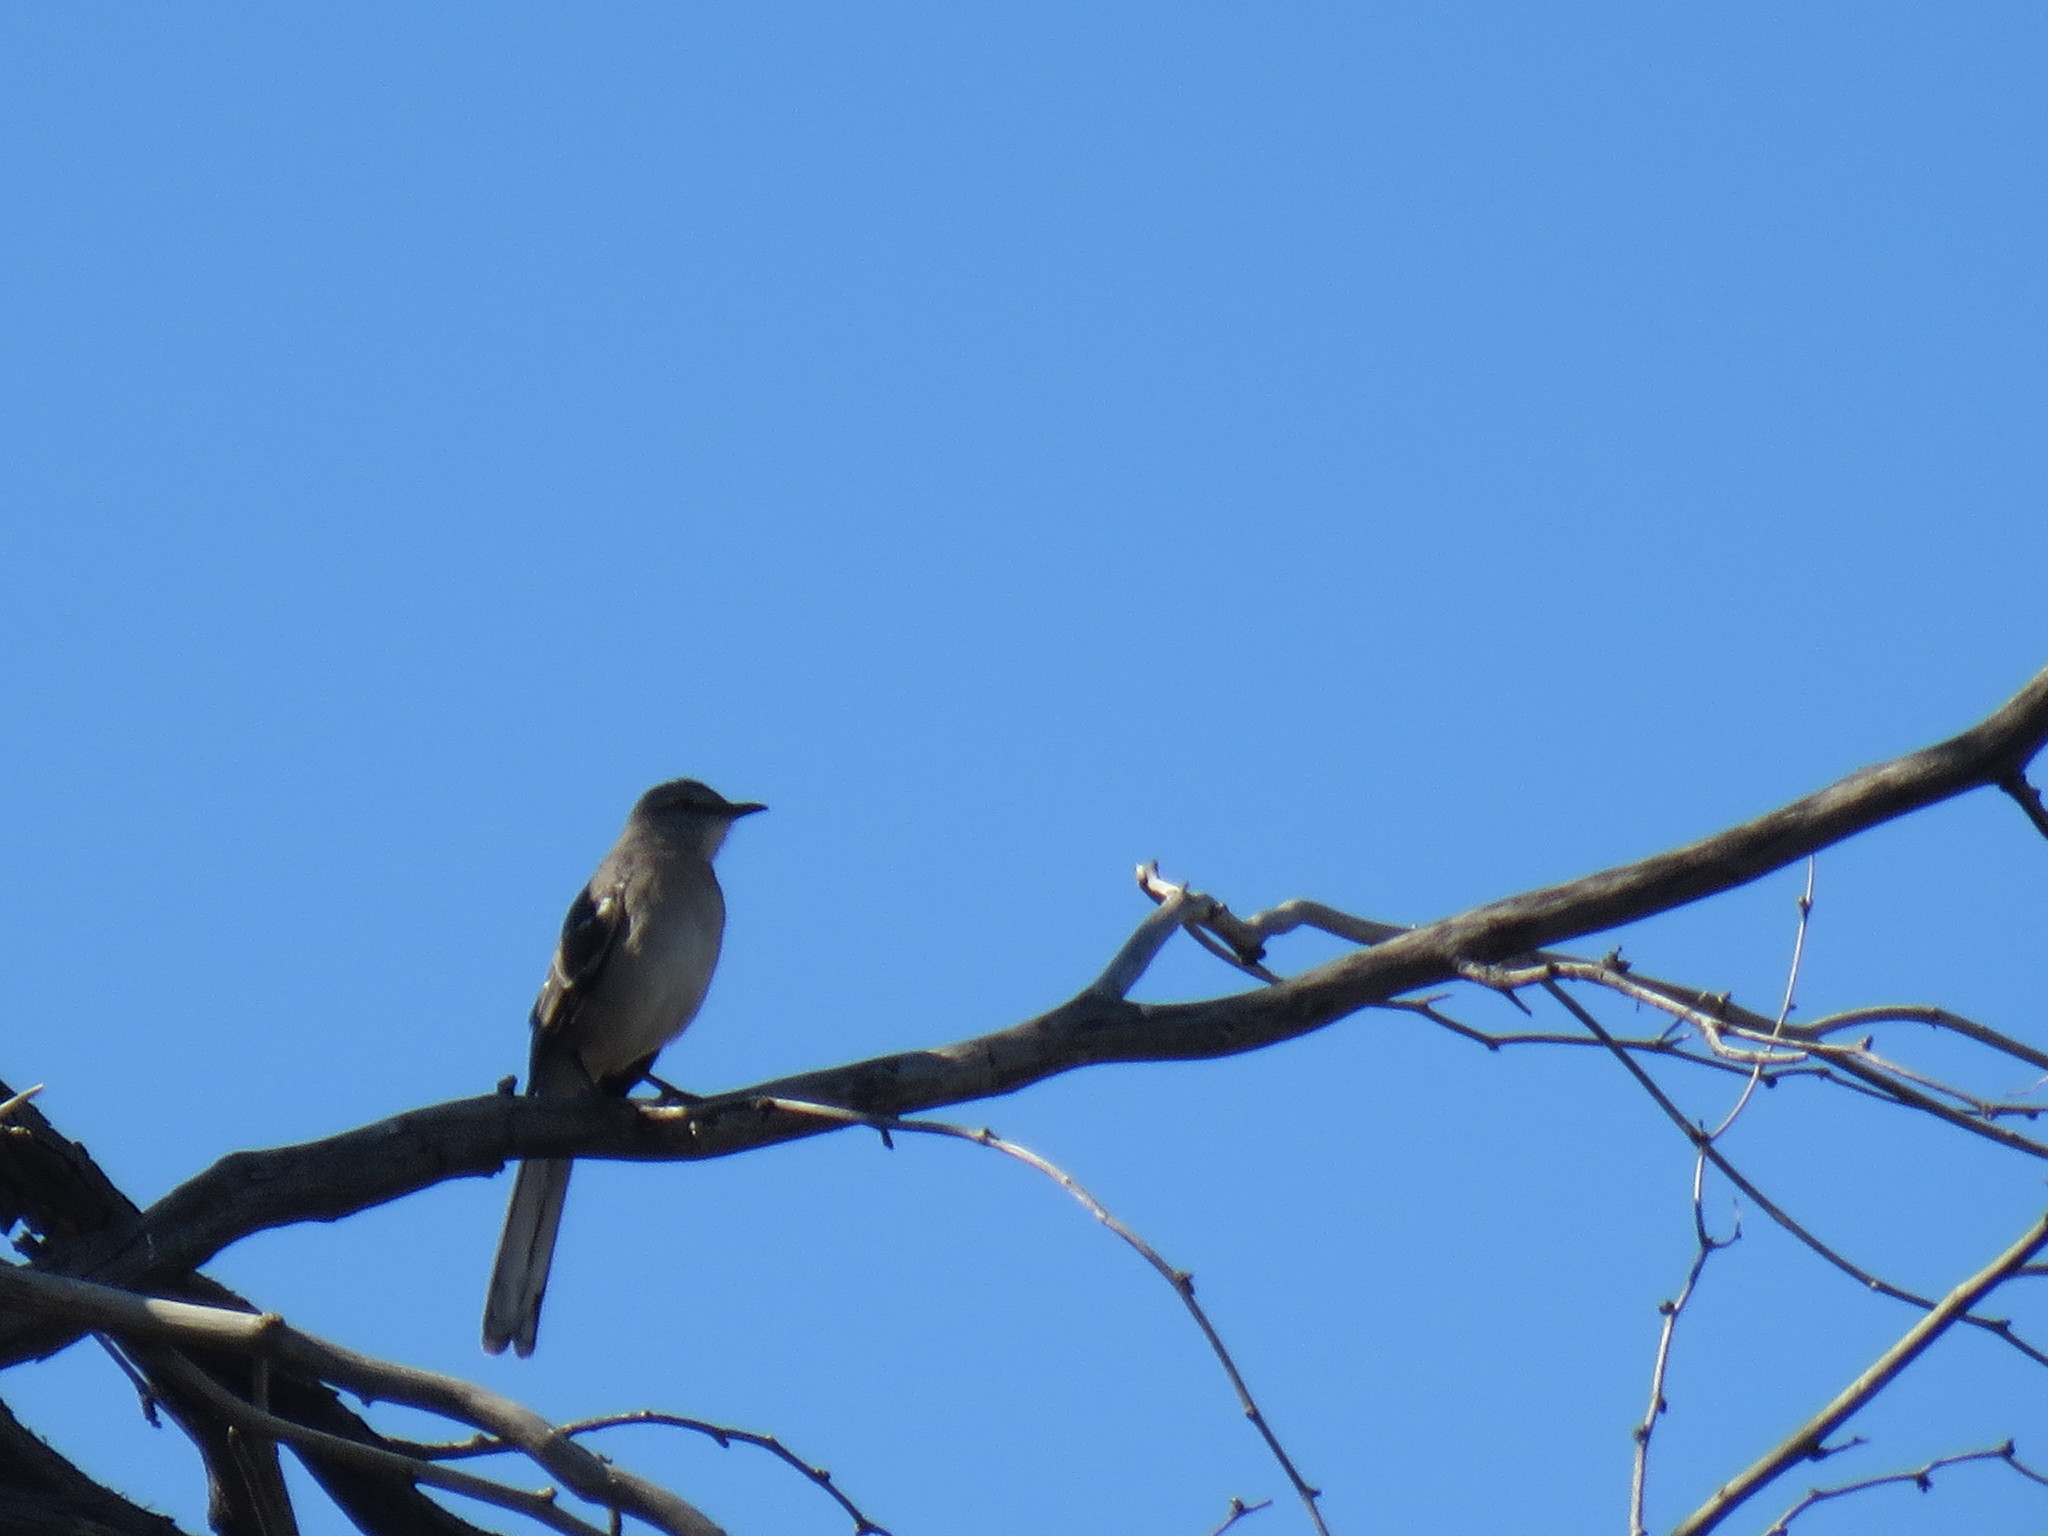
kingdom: Animalia
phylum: Chordata
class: Aves
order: Passeriformes
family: Mimidae
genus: Mimus
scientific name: Mimus polyglottos
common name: Northern mockingbird
